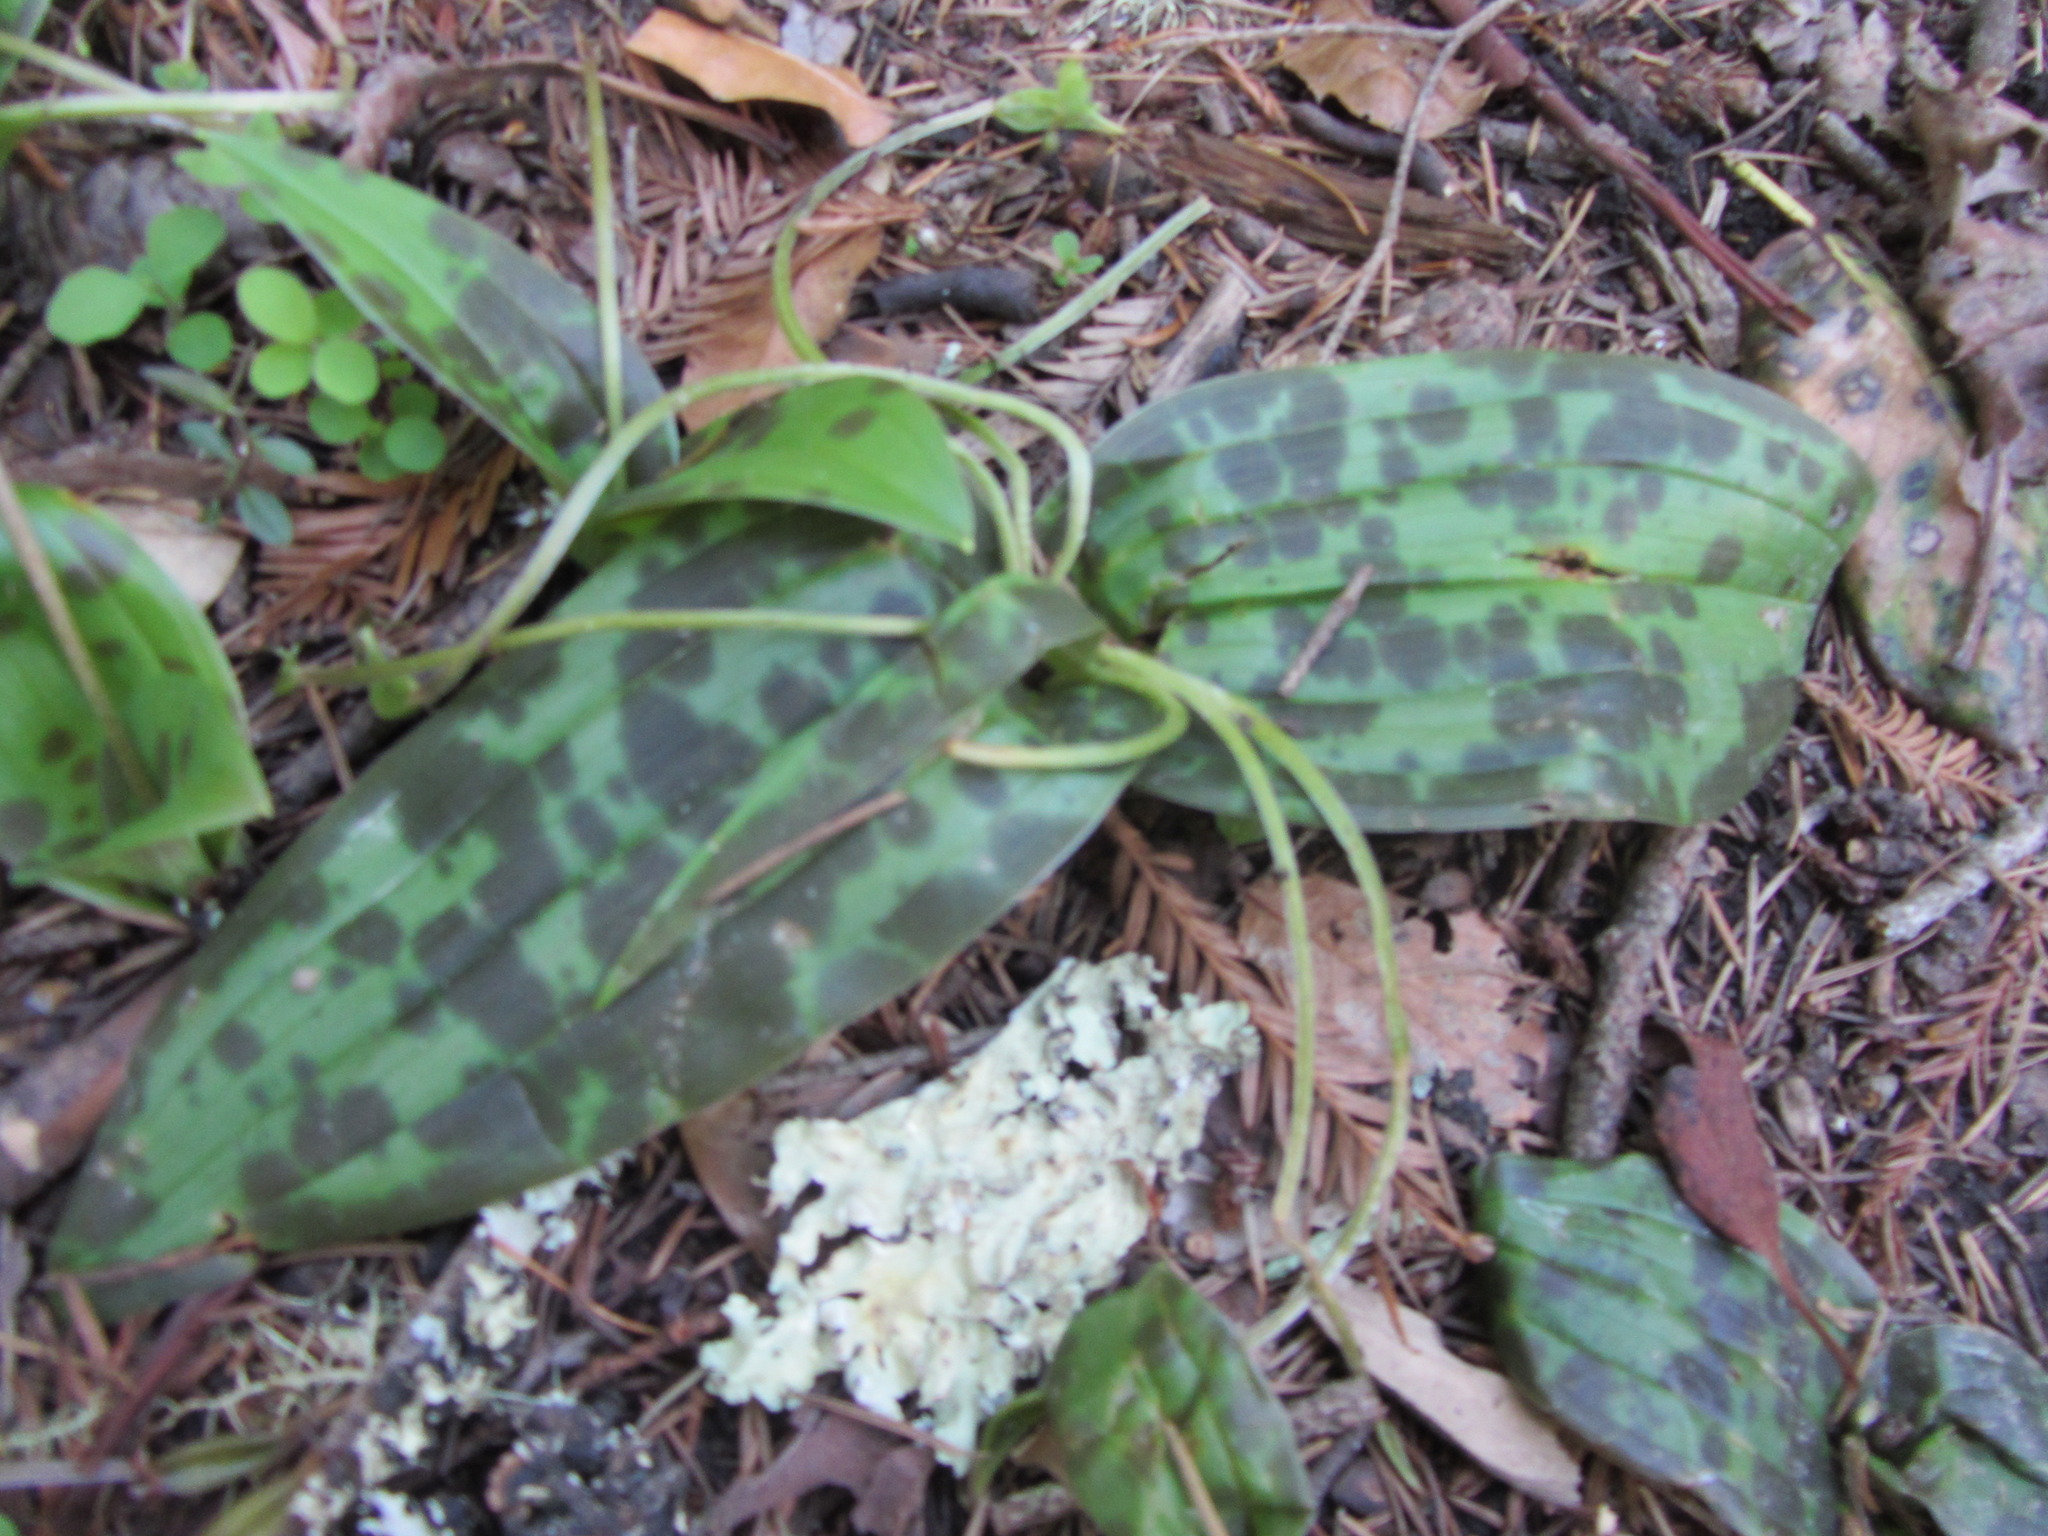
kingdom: Plantae
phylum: Tracheophyta
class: Liliopsida
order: Liliales
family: Liliaceae
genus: Scoliopus
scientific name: Scoliopus bigelovii
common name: Foetid adder's-tongue
